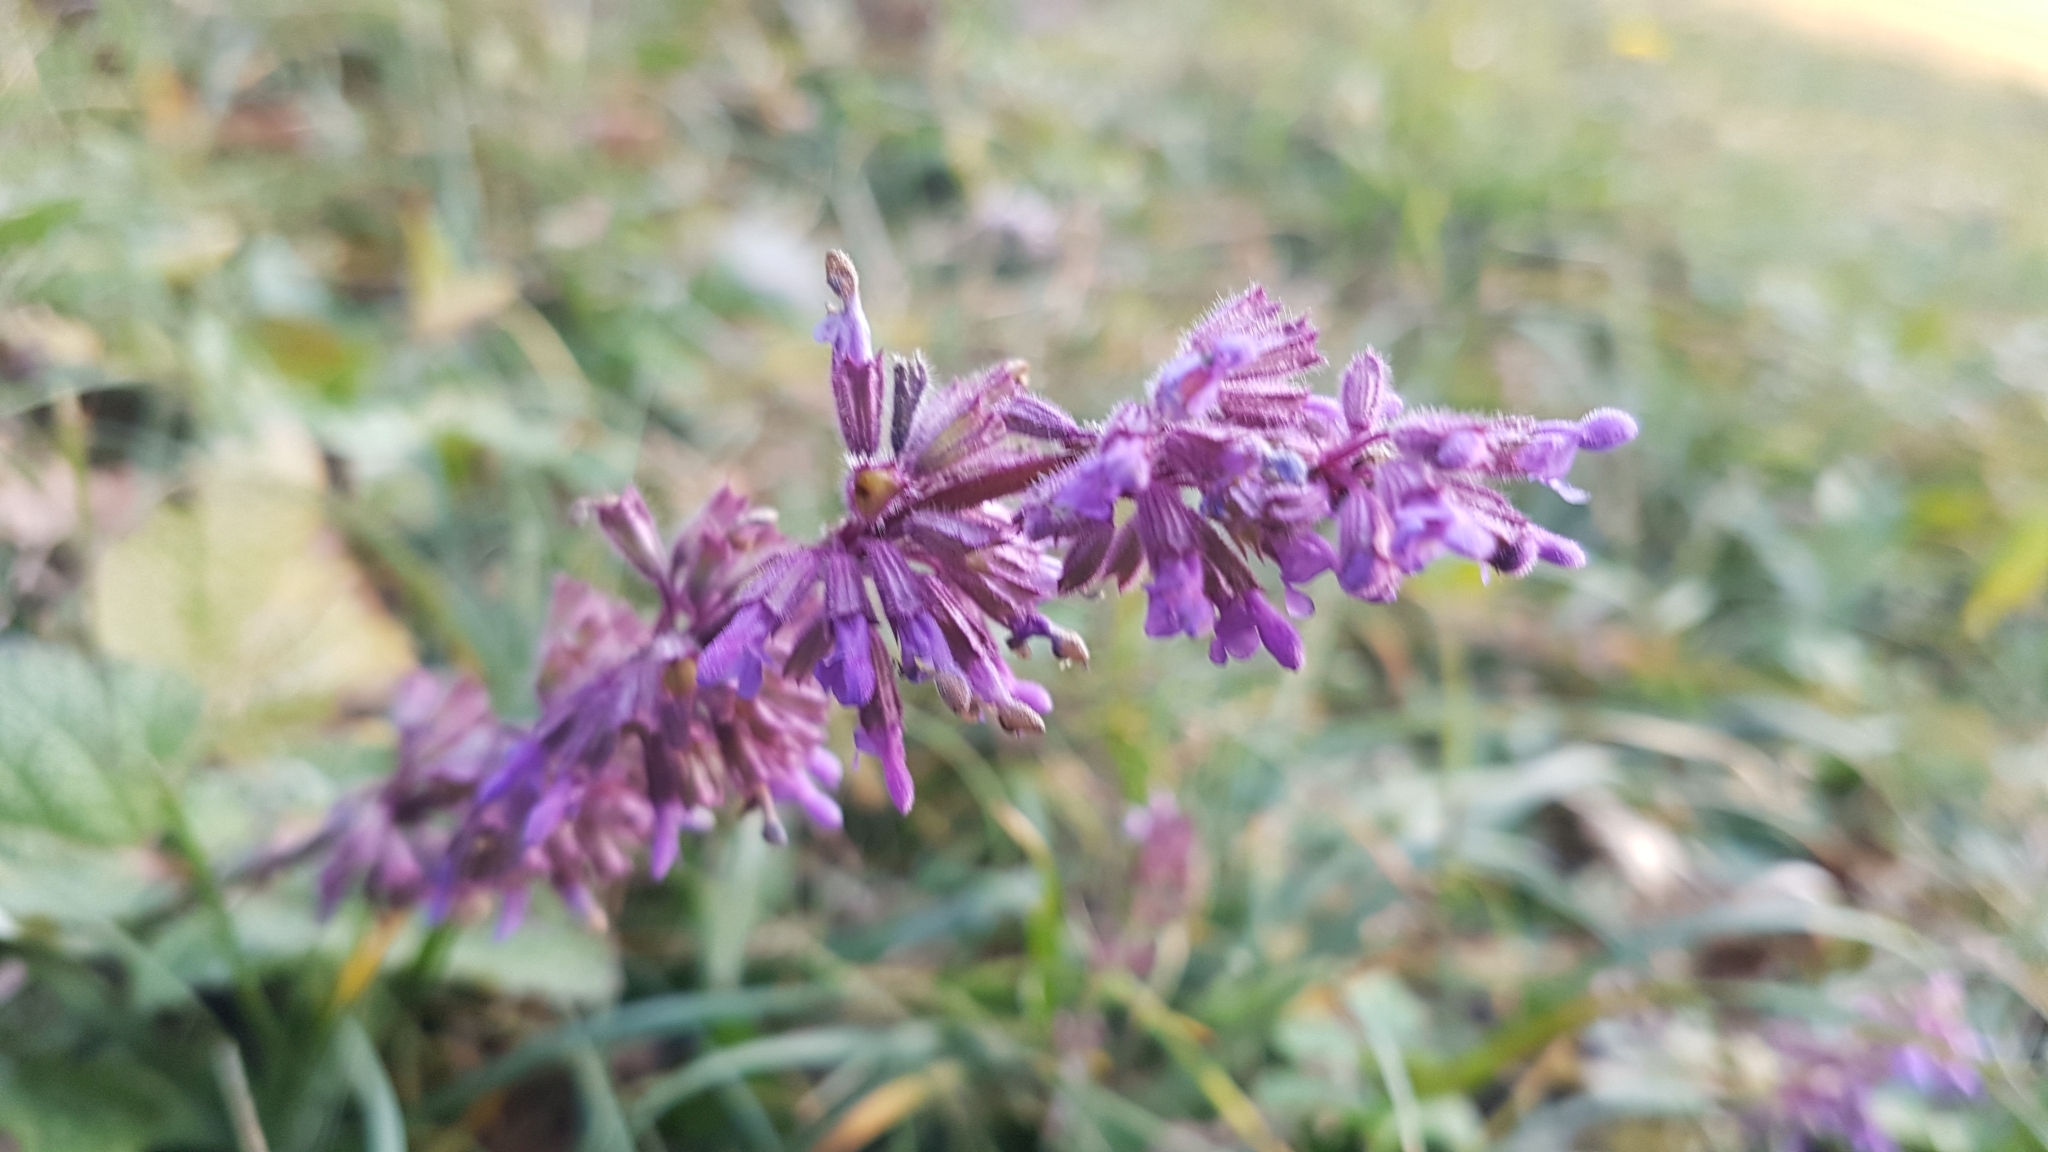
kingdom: Plantae
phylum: Tracheophyta
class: Magnoliopsida
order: Lamiales
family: Lamiaceae
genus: Salvia
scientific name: Salvia verticillata
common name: Whorled clary
